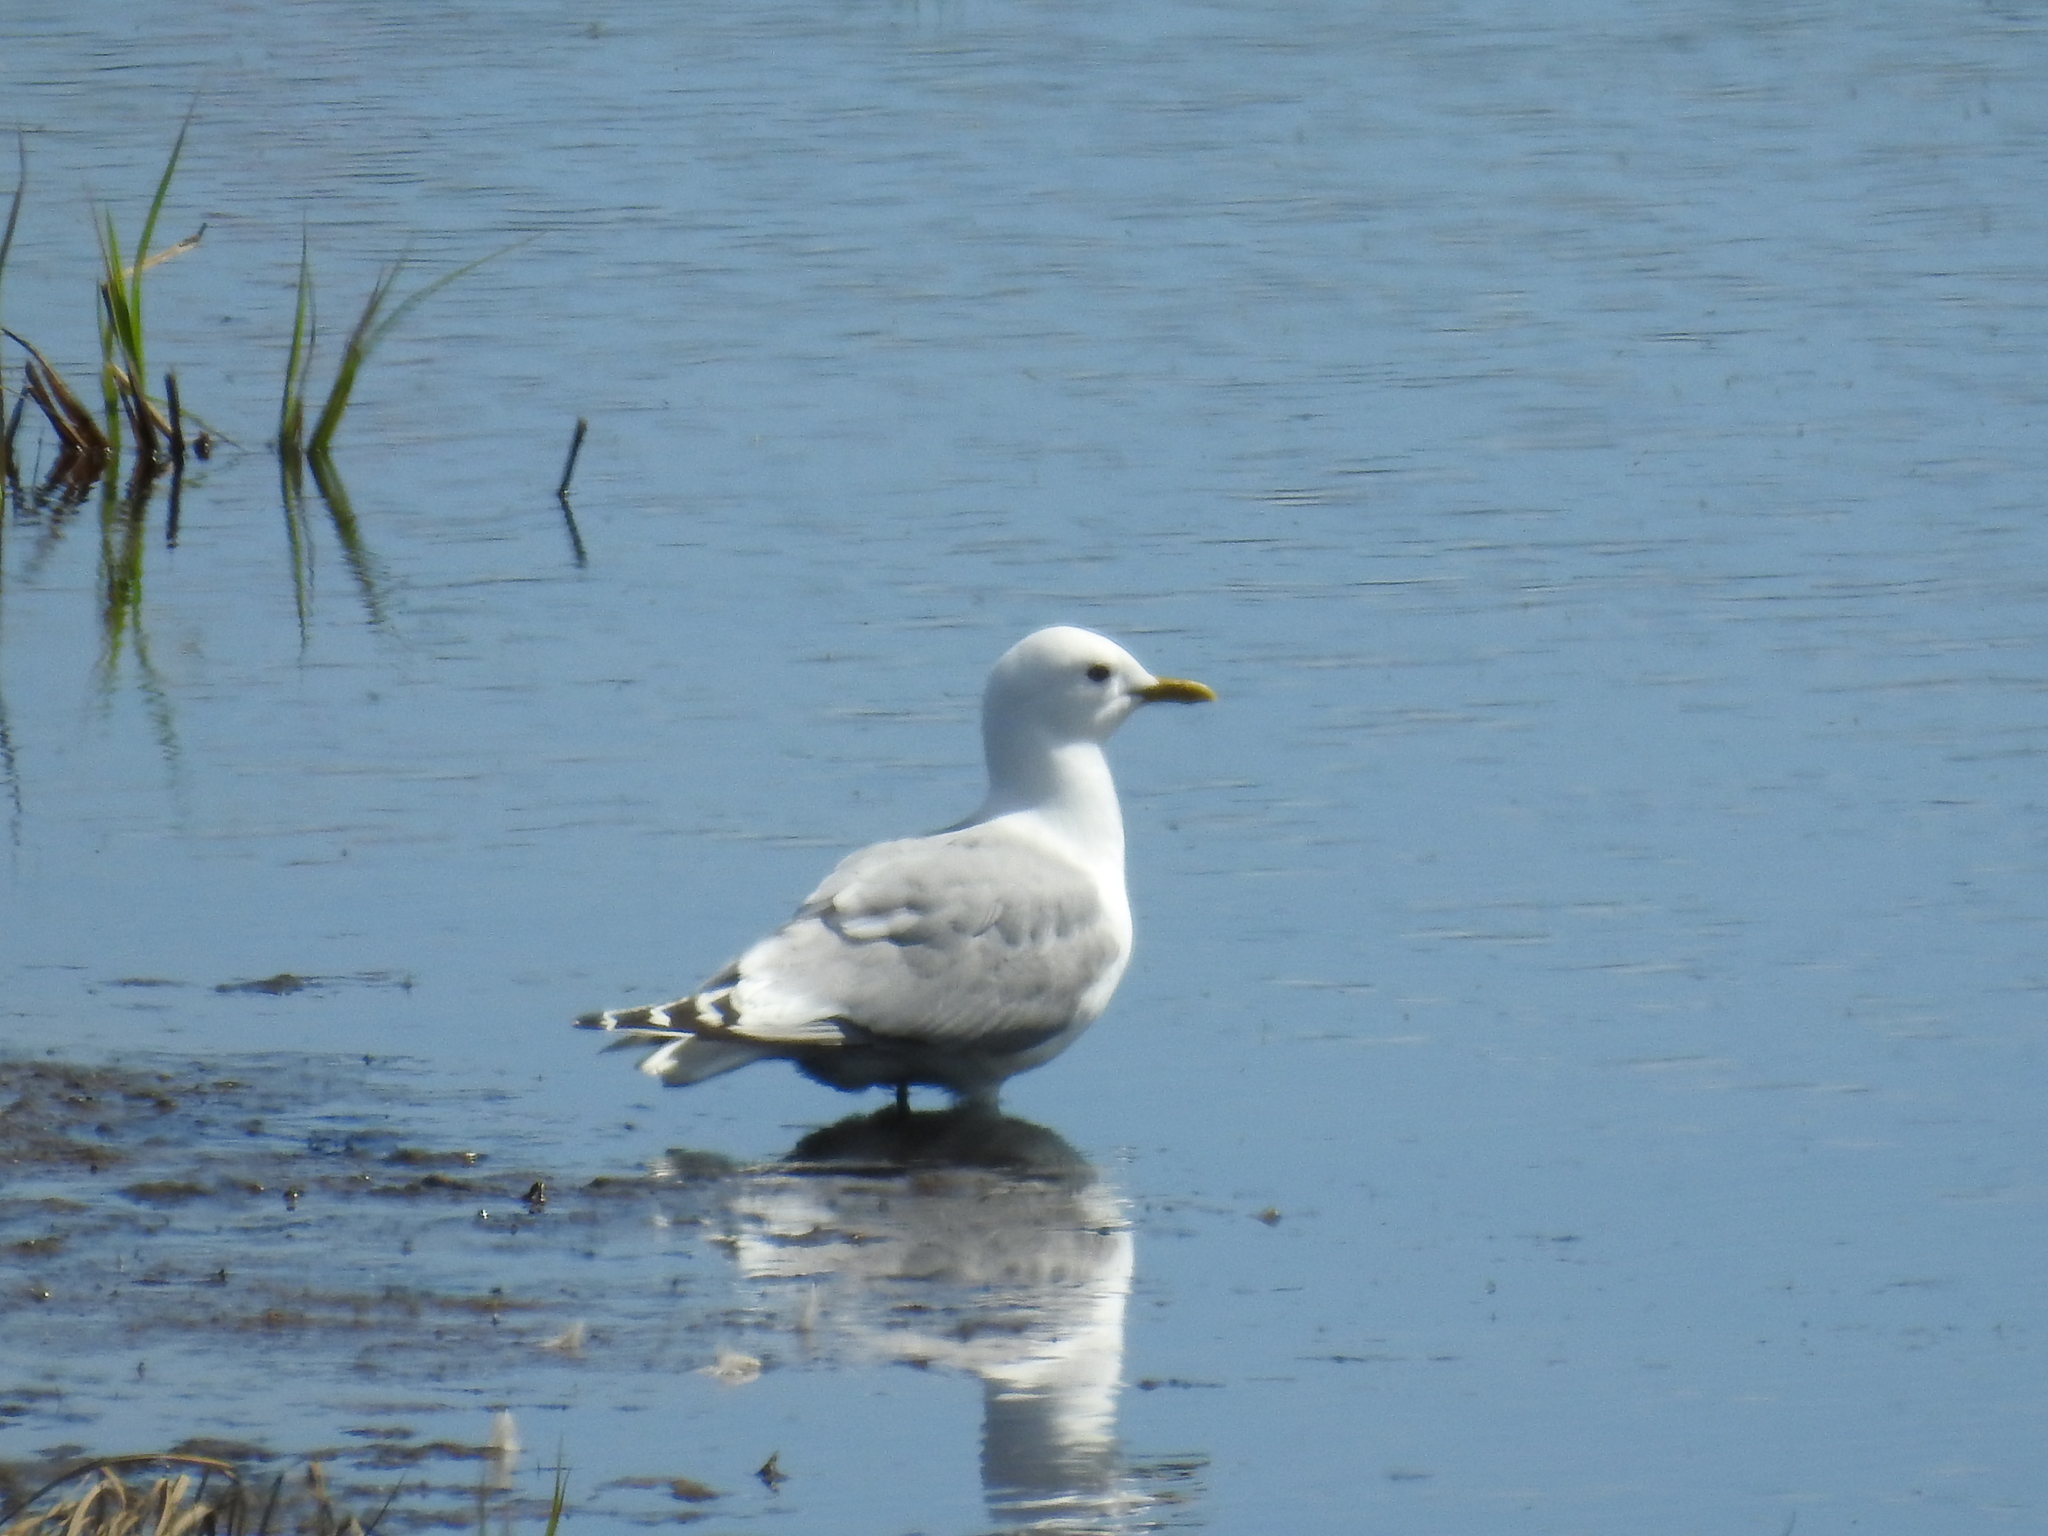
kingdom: Animalia
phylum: Chordata
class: Aves
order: Charadriiformes
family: Laridae
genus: Larus
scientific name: Larus brachyrhynchus
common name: Short-billed gull
